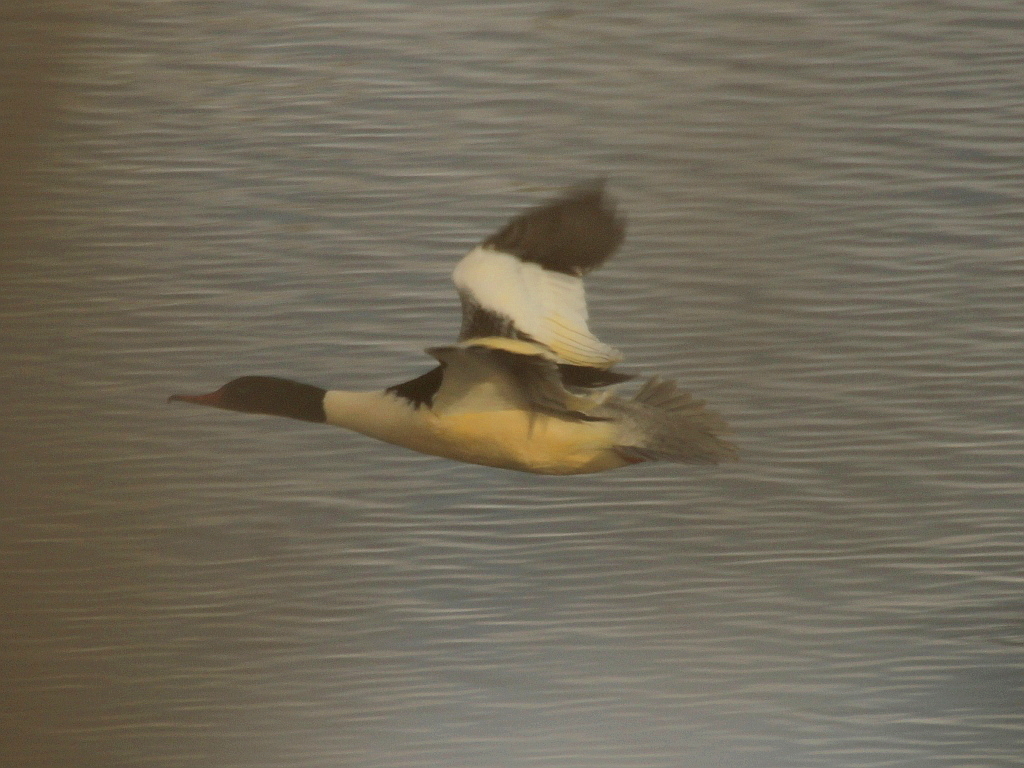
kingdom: Animalia
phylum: Chordata
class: Aves
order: Anseriformes
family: Anatidae
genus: Mergus
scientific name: Mergus merganser
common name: Common merganser
